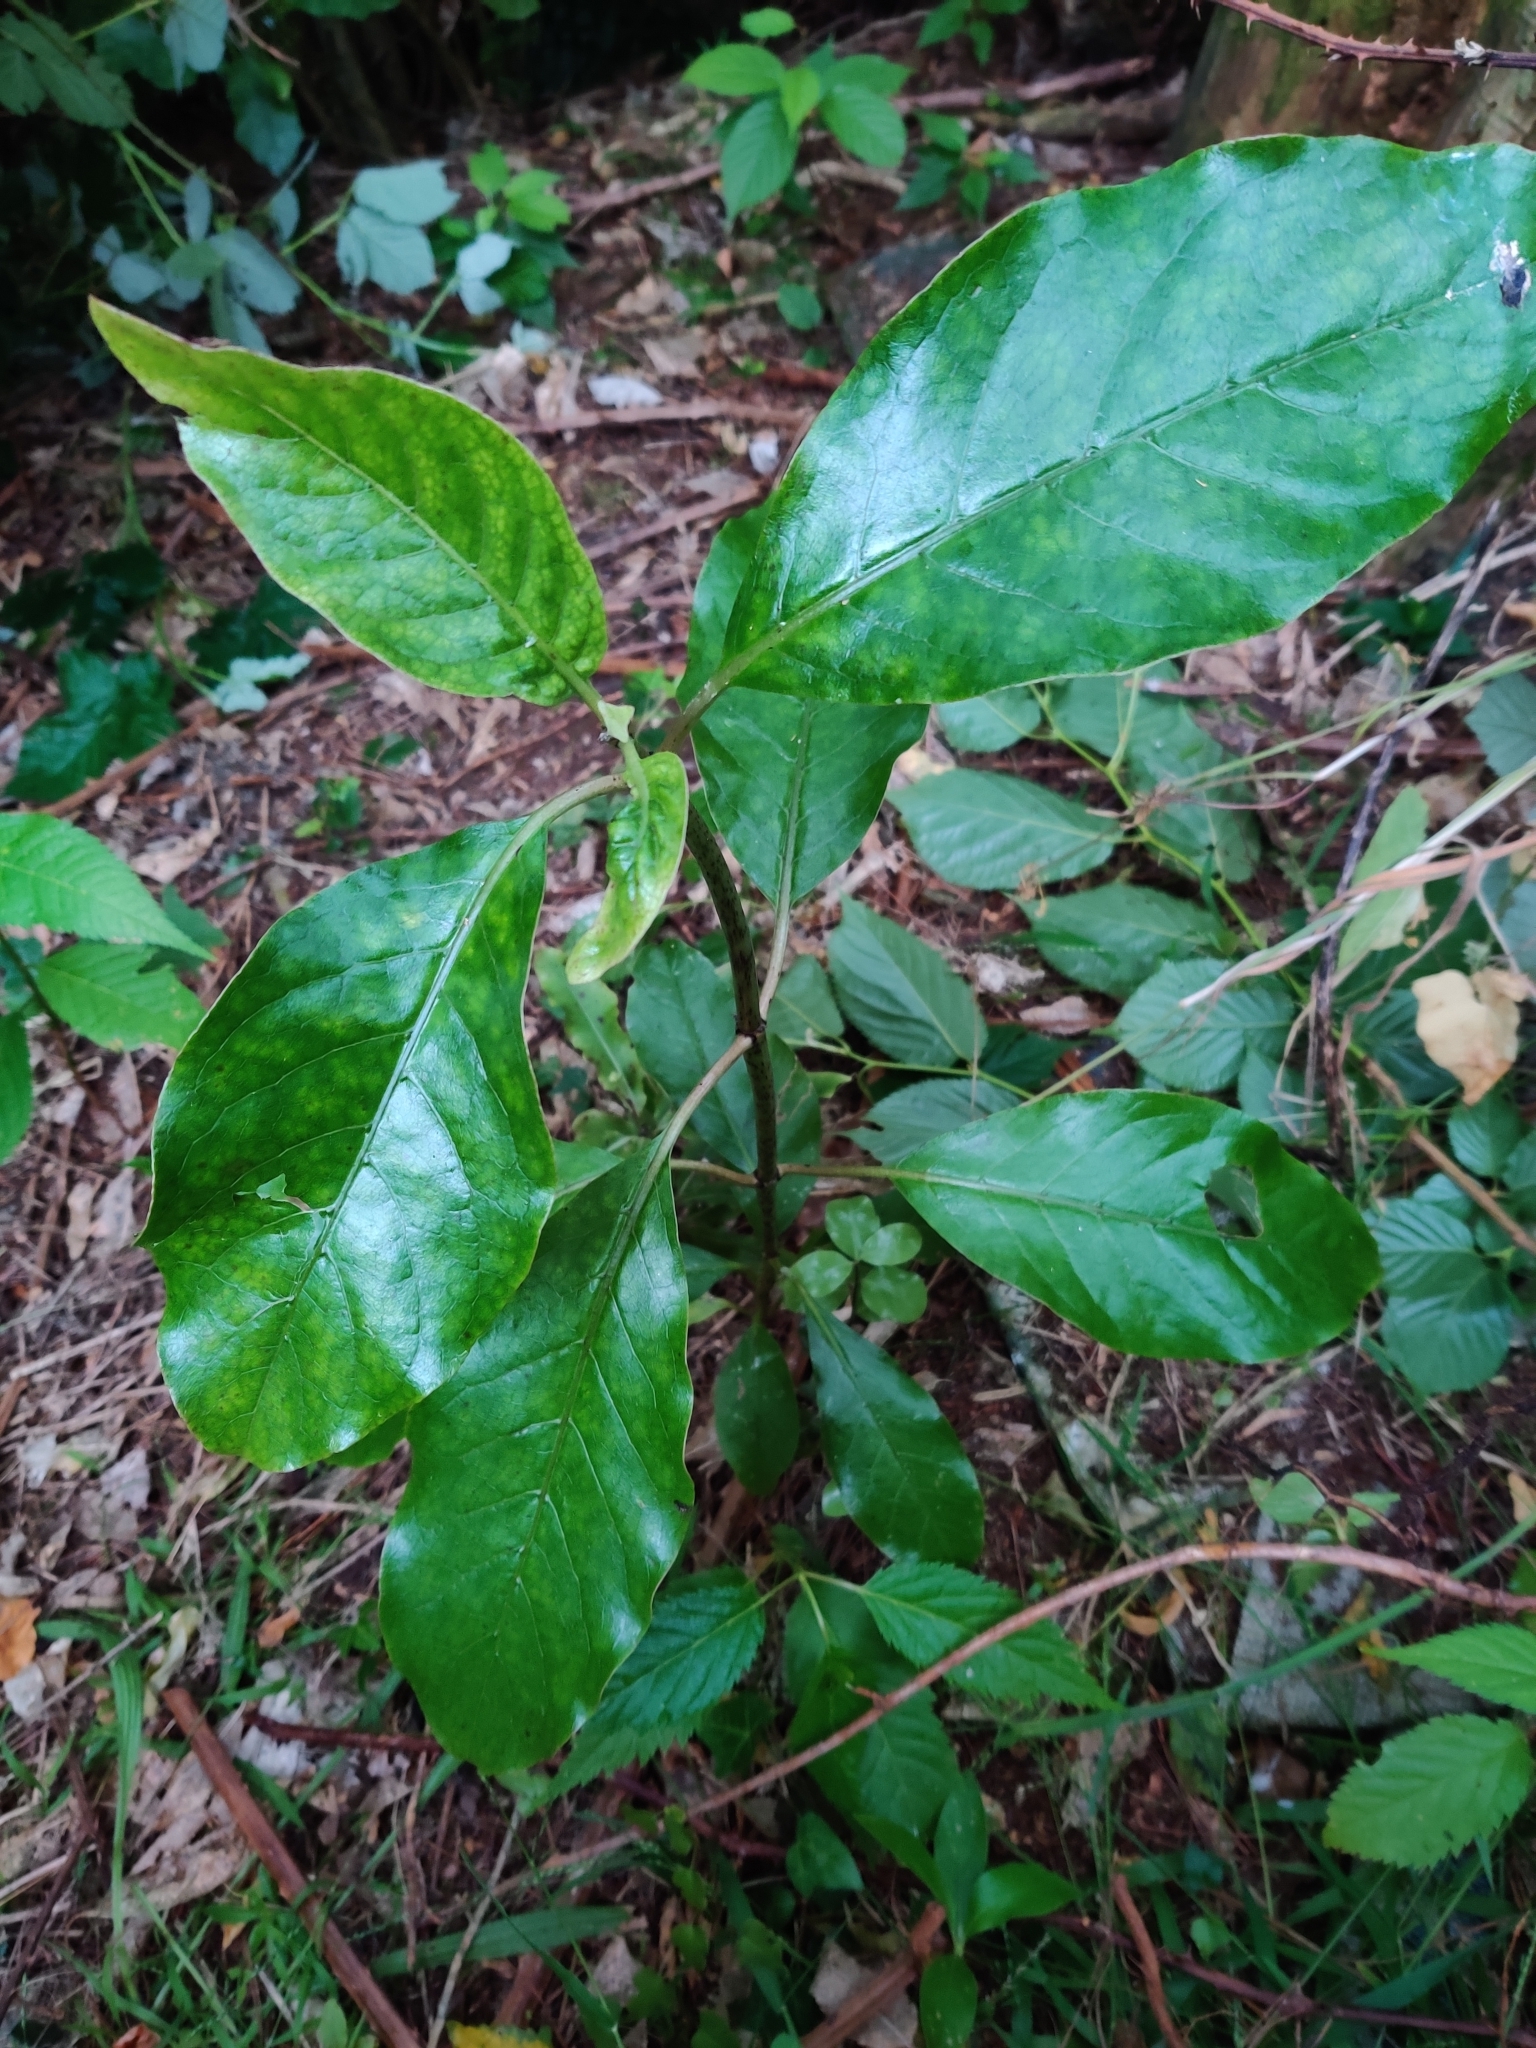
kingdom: Plantae
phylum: Tracheophyta
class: Magnoliopsida
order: Gentianales
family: Rubiaceae
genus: Coprosma
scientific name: Coprosma autumnalis
